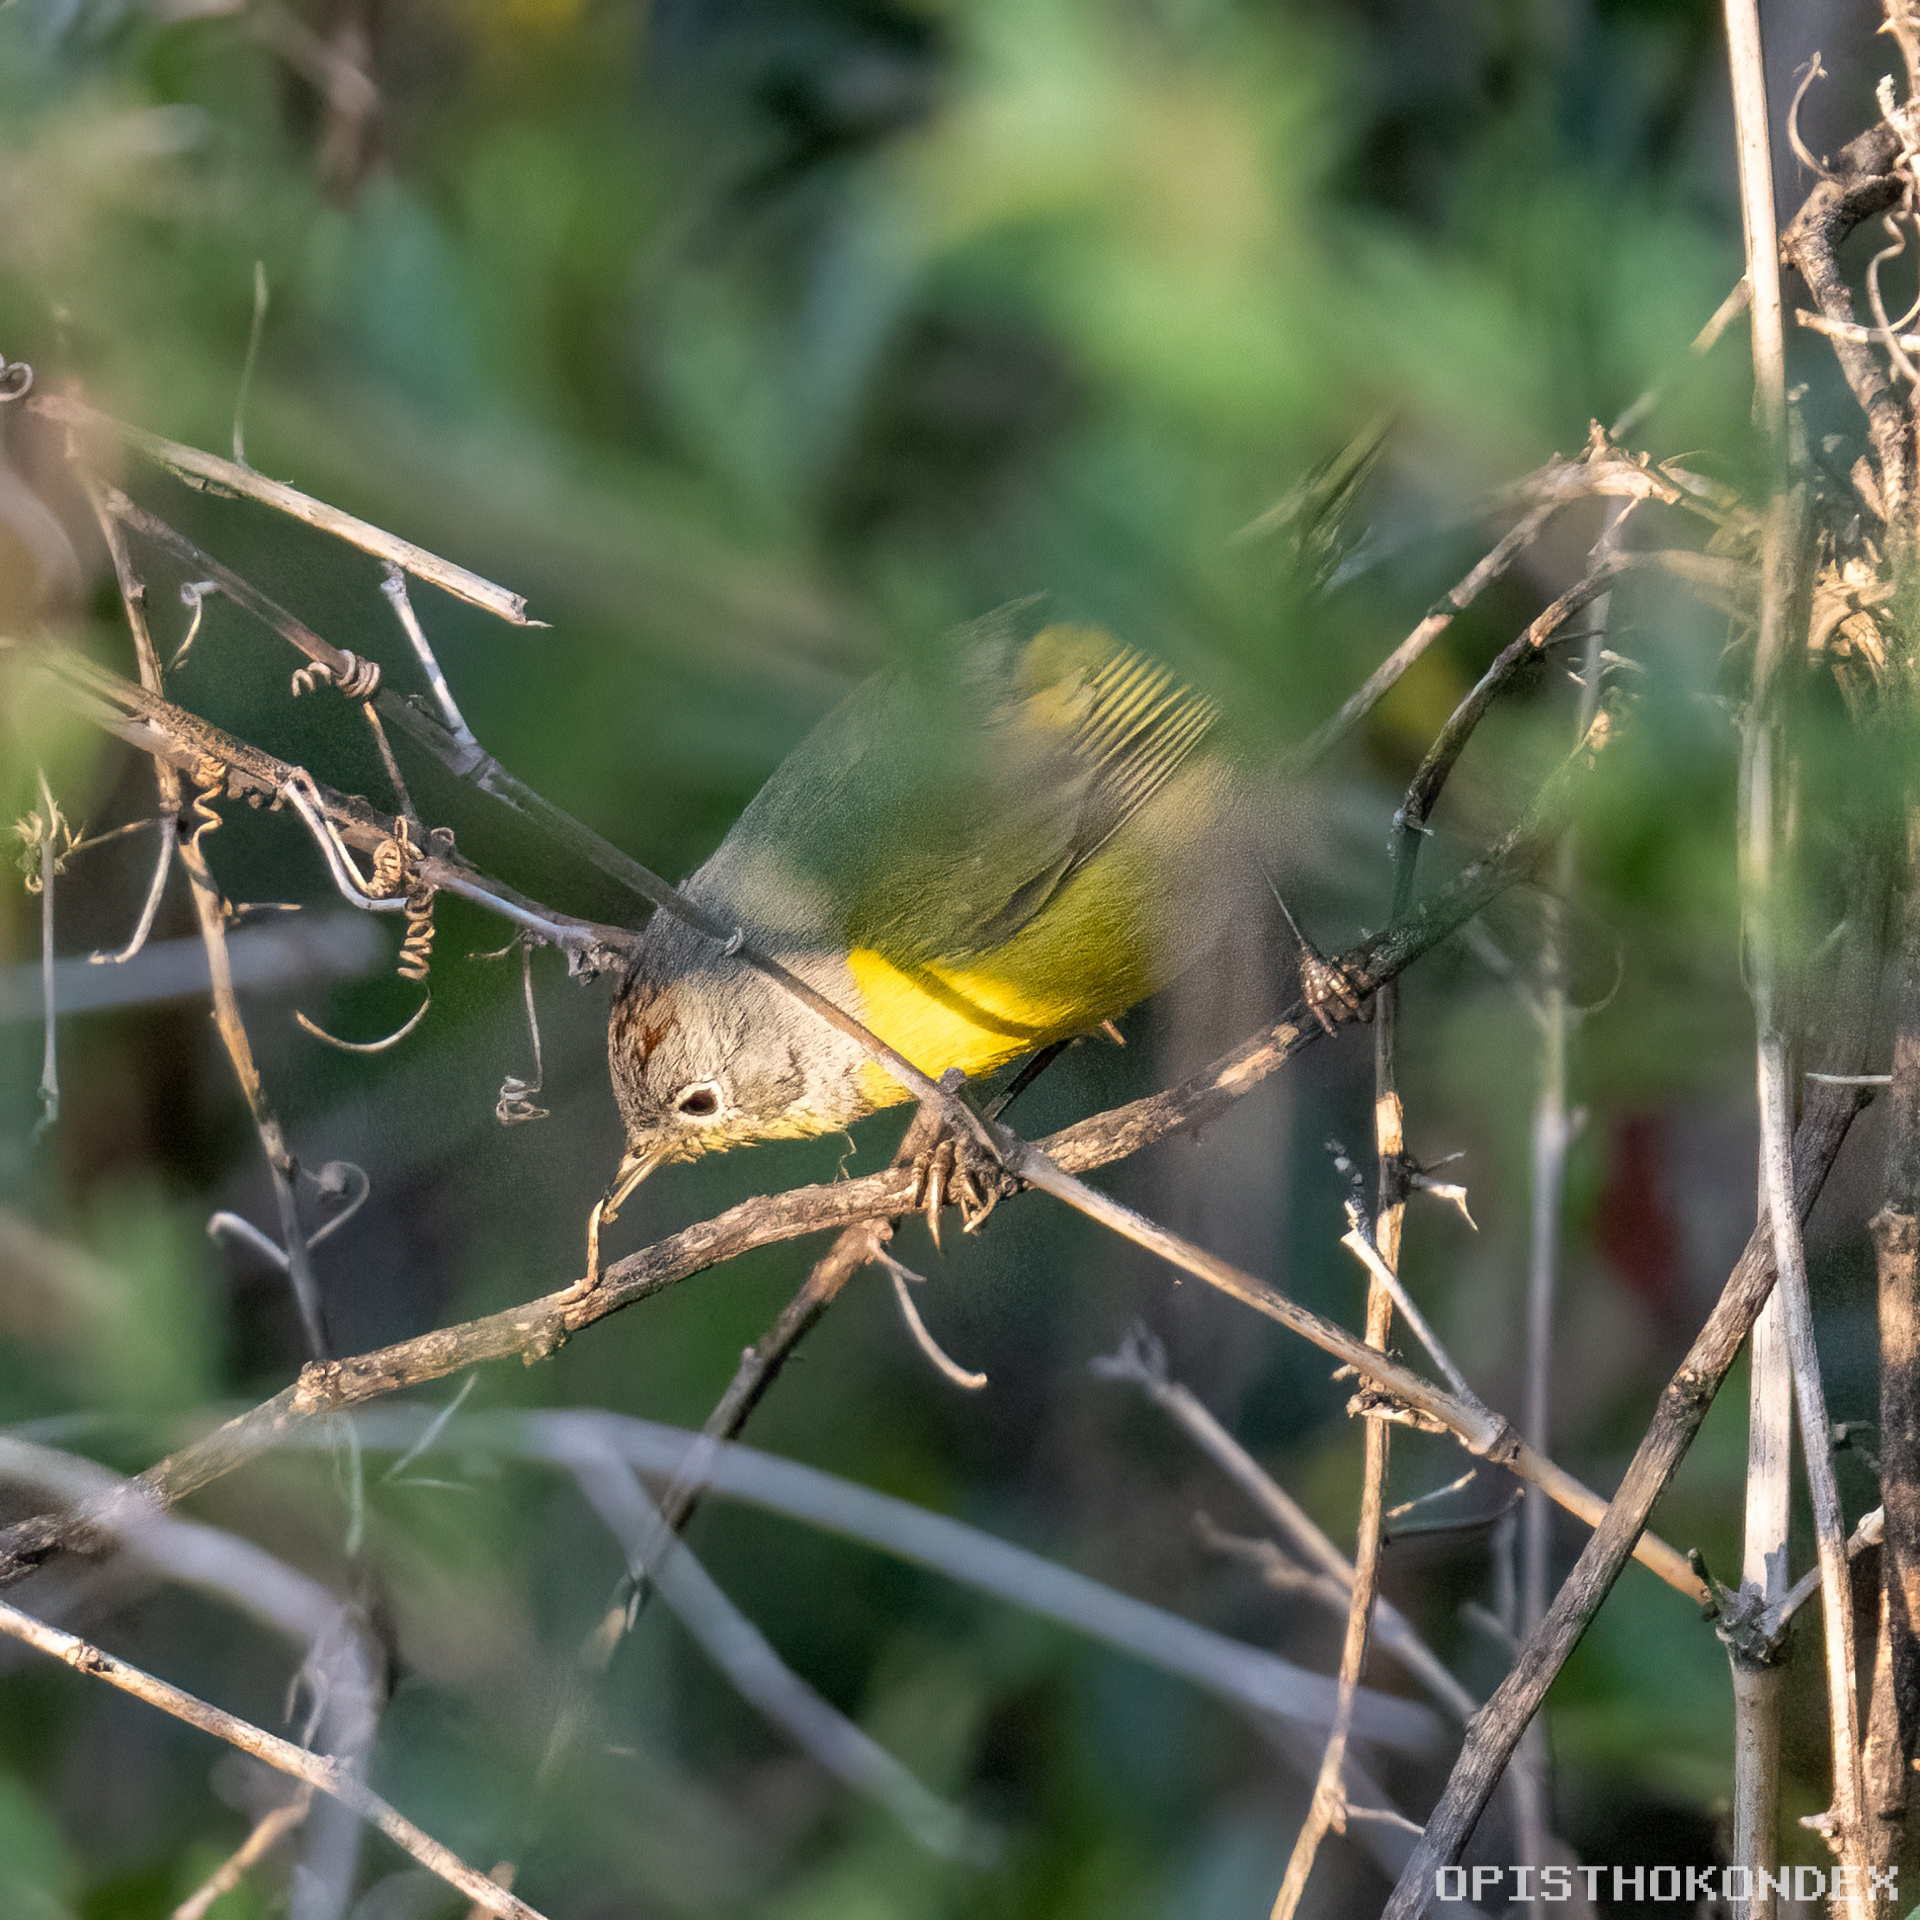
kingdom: Animalia
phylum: Chordata
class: Aves
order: Passeriformes
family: Parulidae
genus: Leiothlypis
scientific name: Leiothlypis ruficapilla
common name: Nashville warbler
